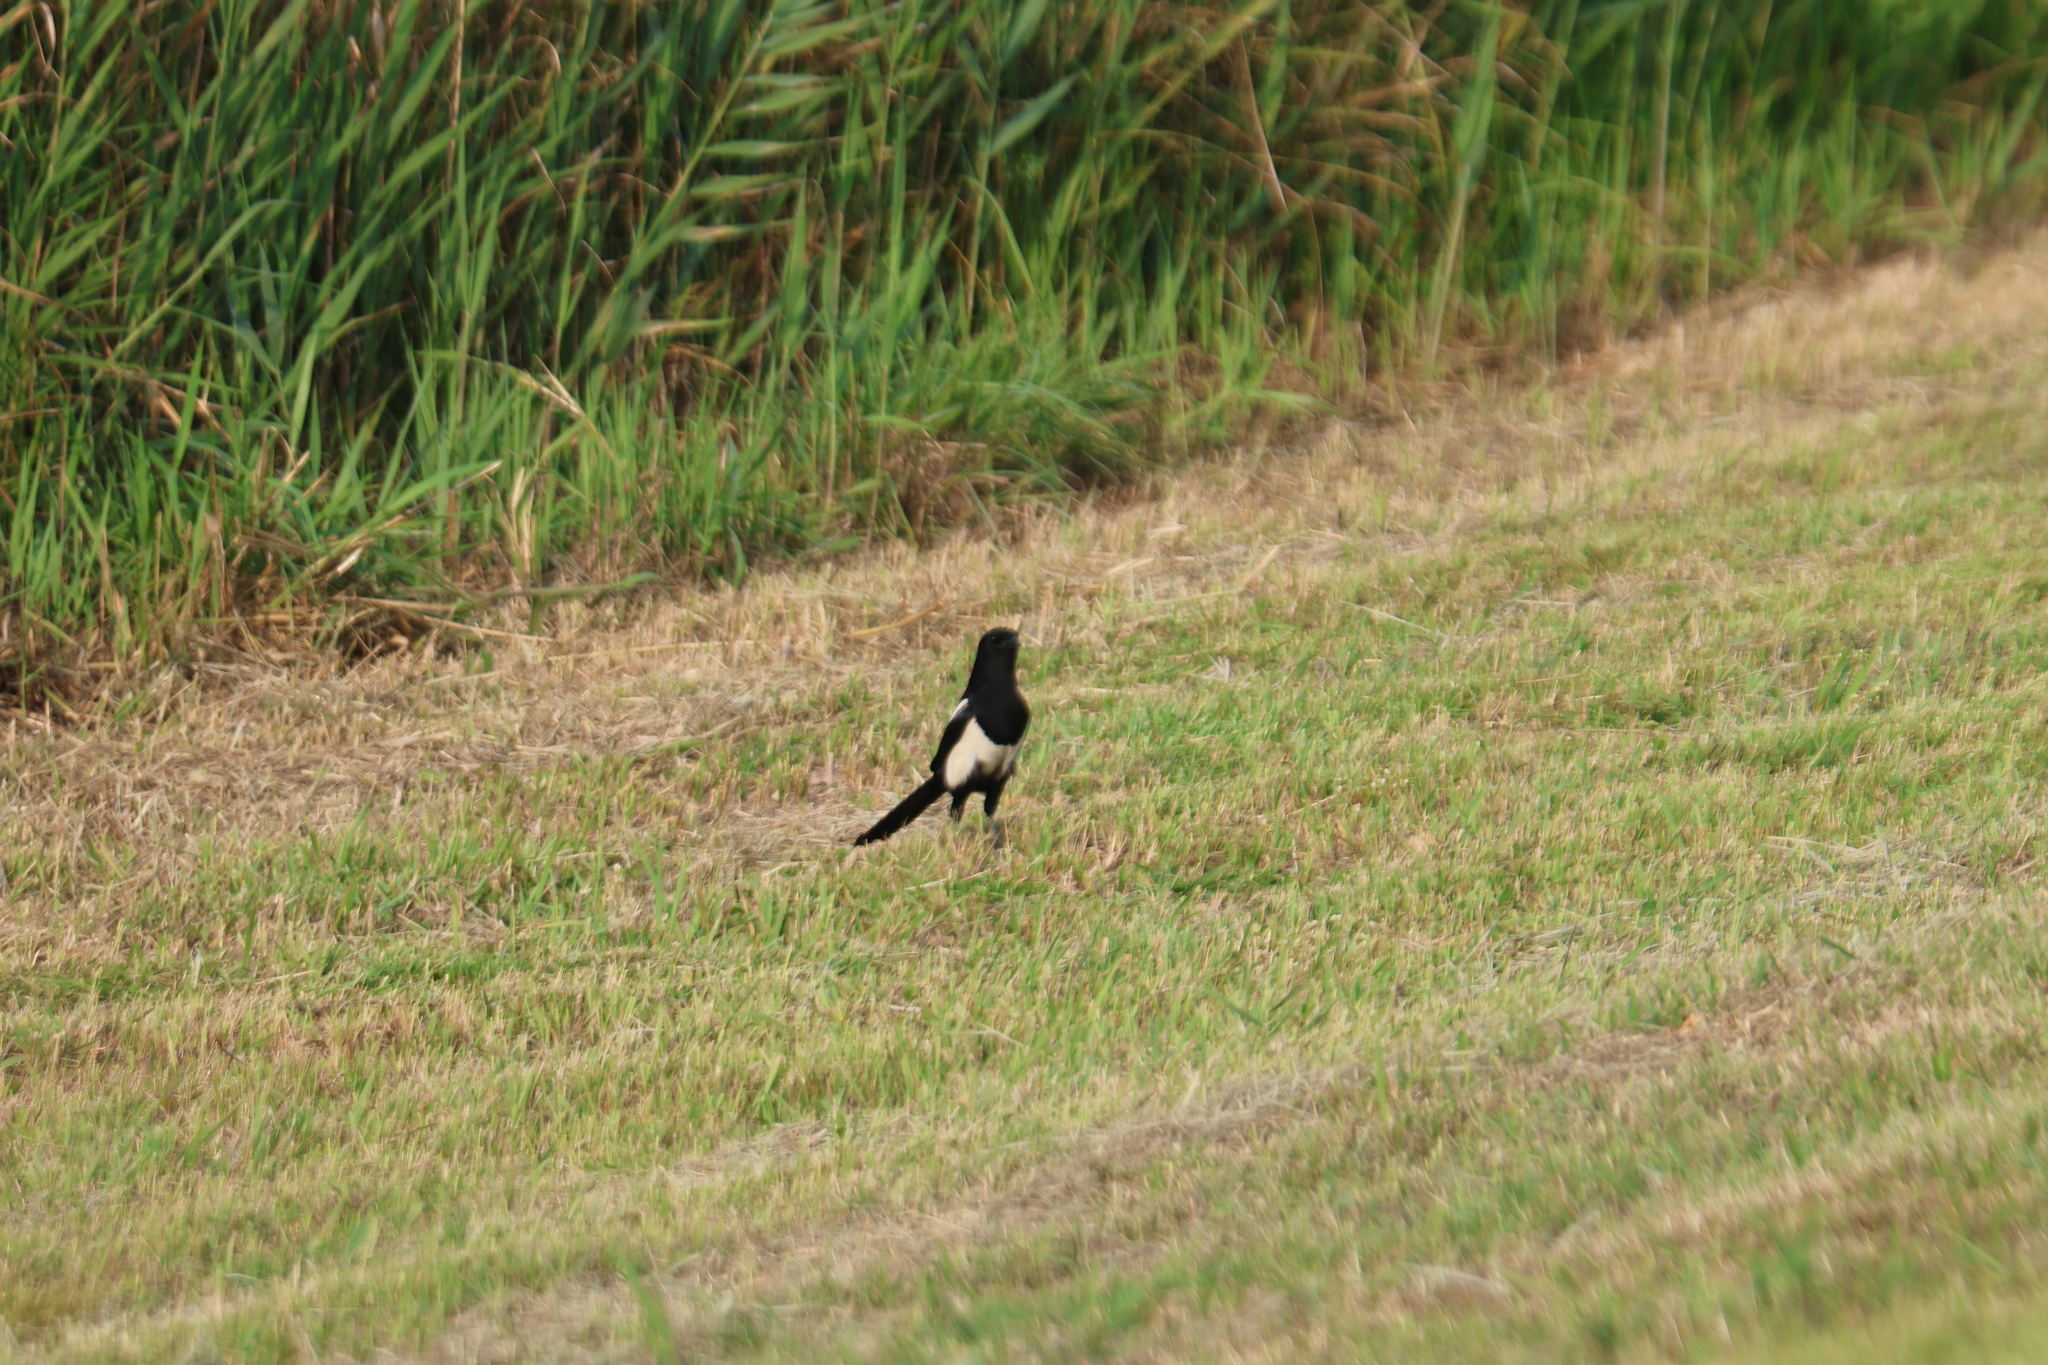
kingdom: Animalia
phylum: Chordata
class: Aves
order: Passeriformes
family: Corvidae
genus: Pica
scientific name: Pica serica
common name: Oriental magpie
